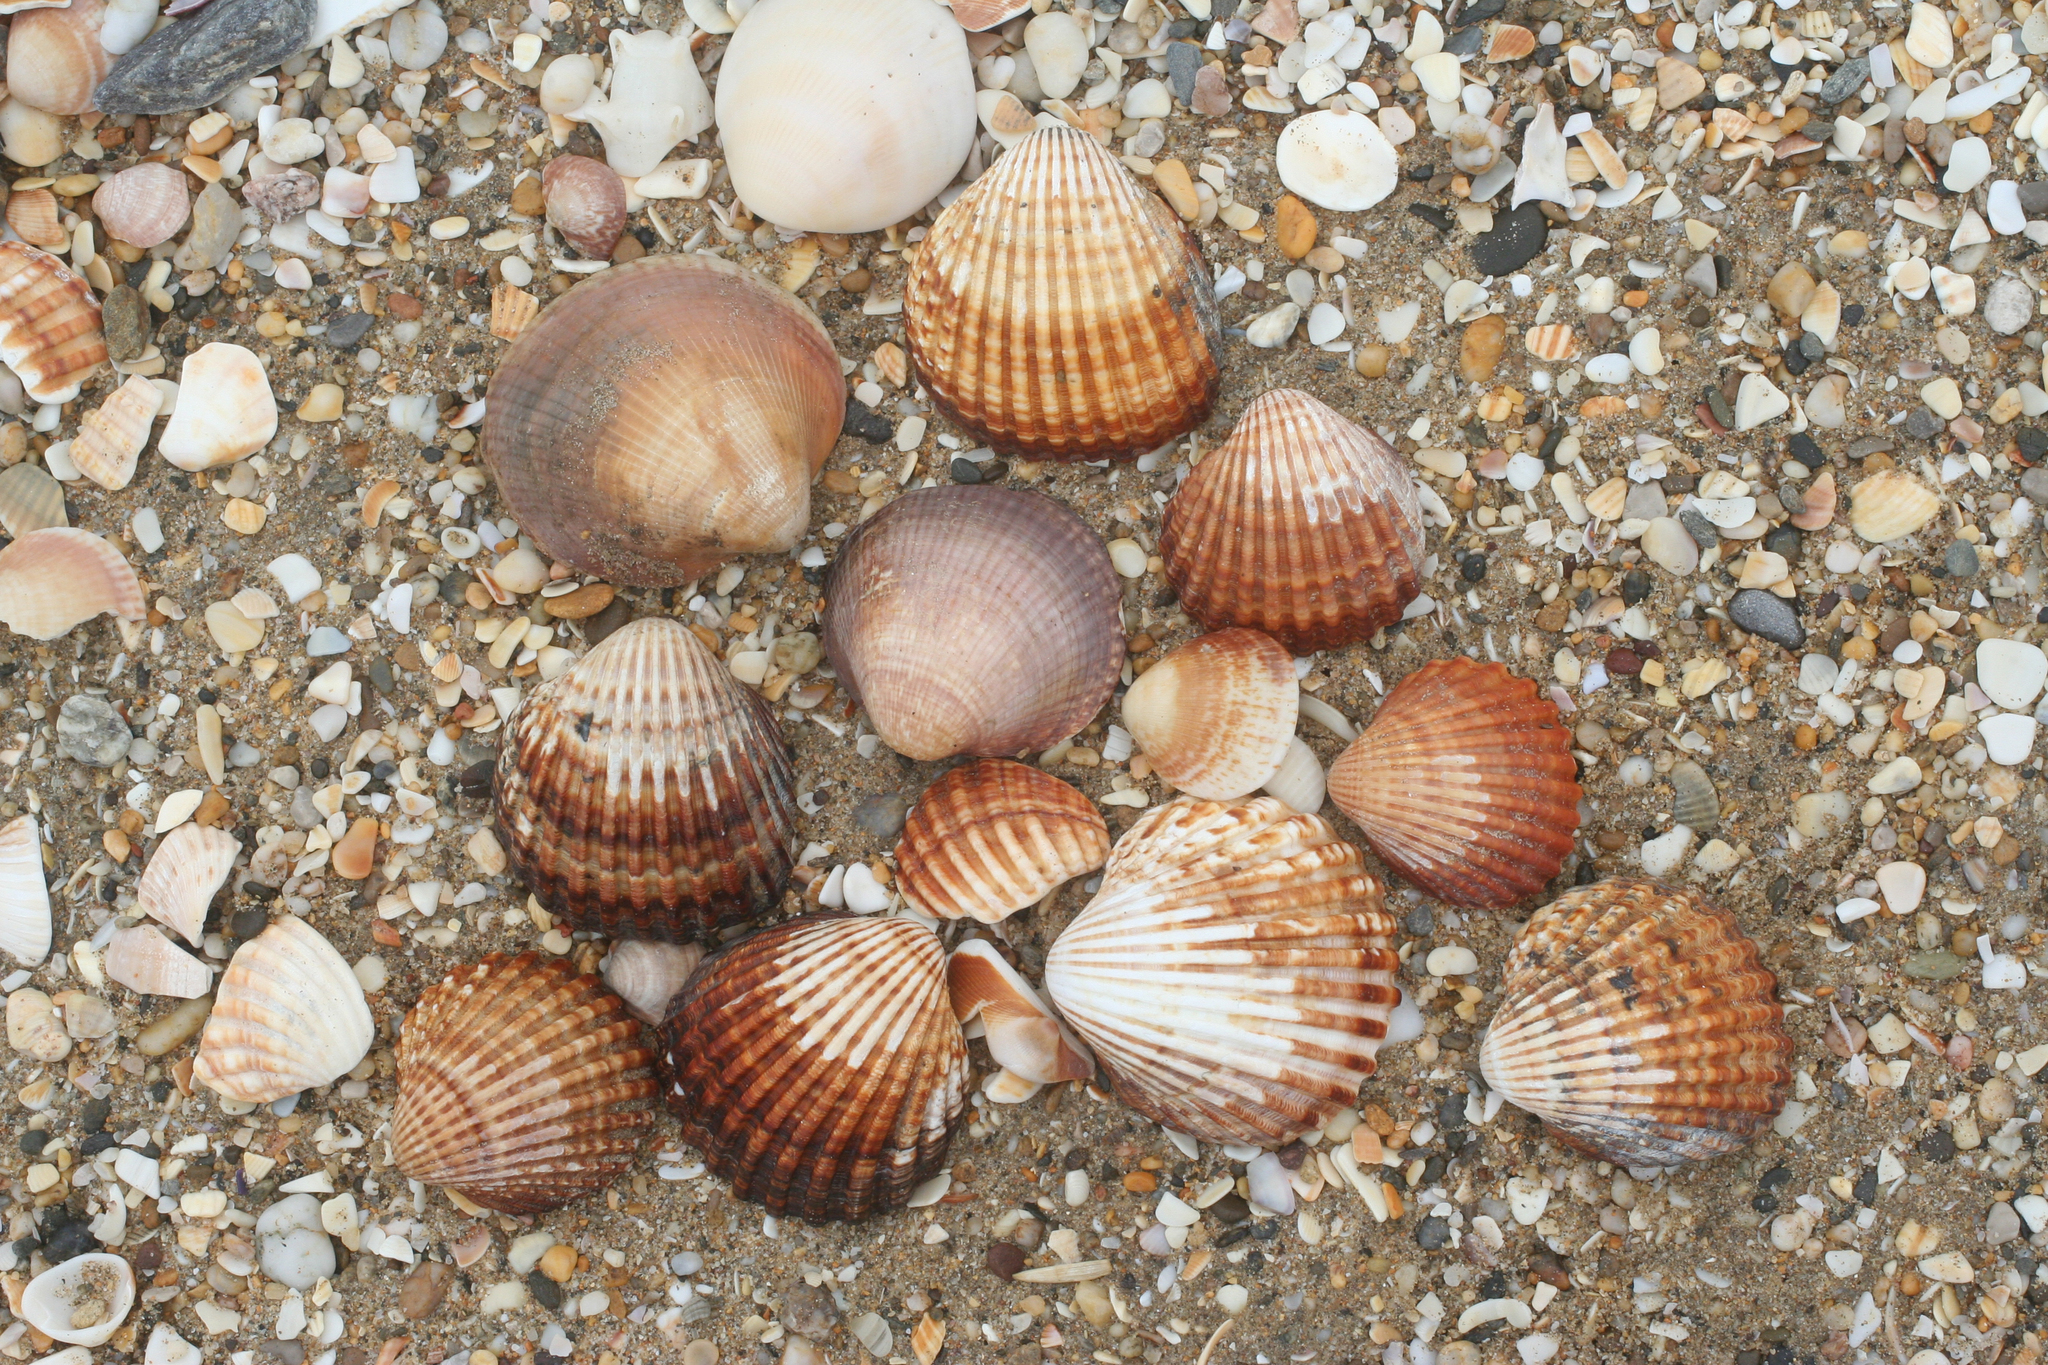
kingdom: Animalia
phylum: Mollusca
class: Bivalvia
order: Cardiida
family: Cardiidae
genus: Acanthocardia
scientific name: Acanthocardia tuberculata
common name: Rough cockle
